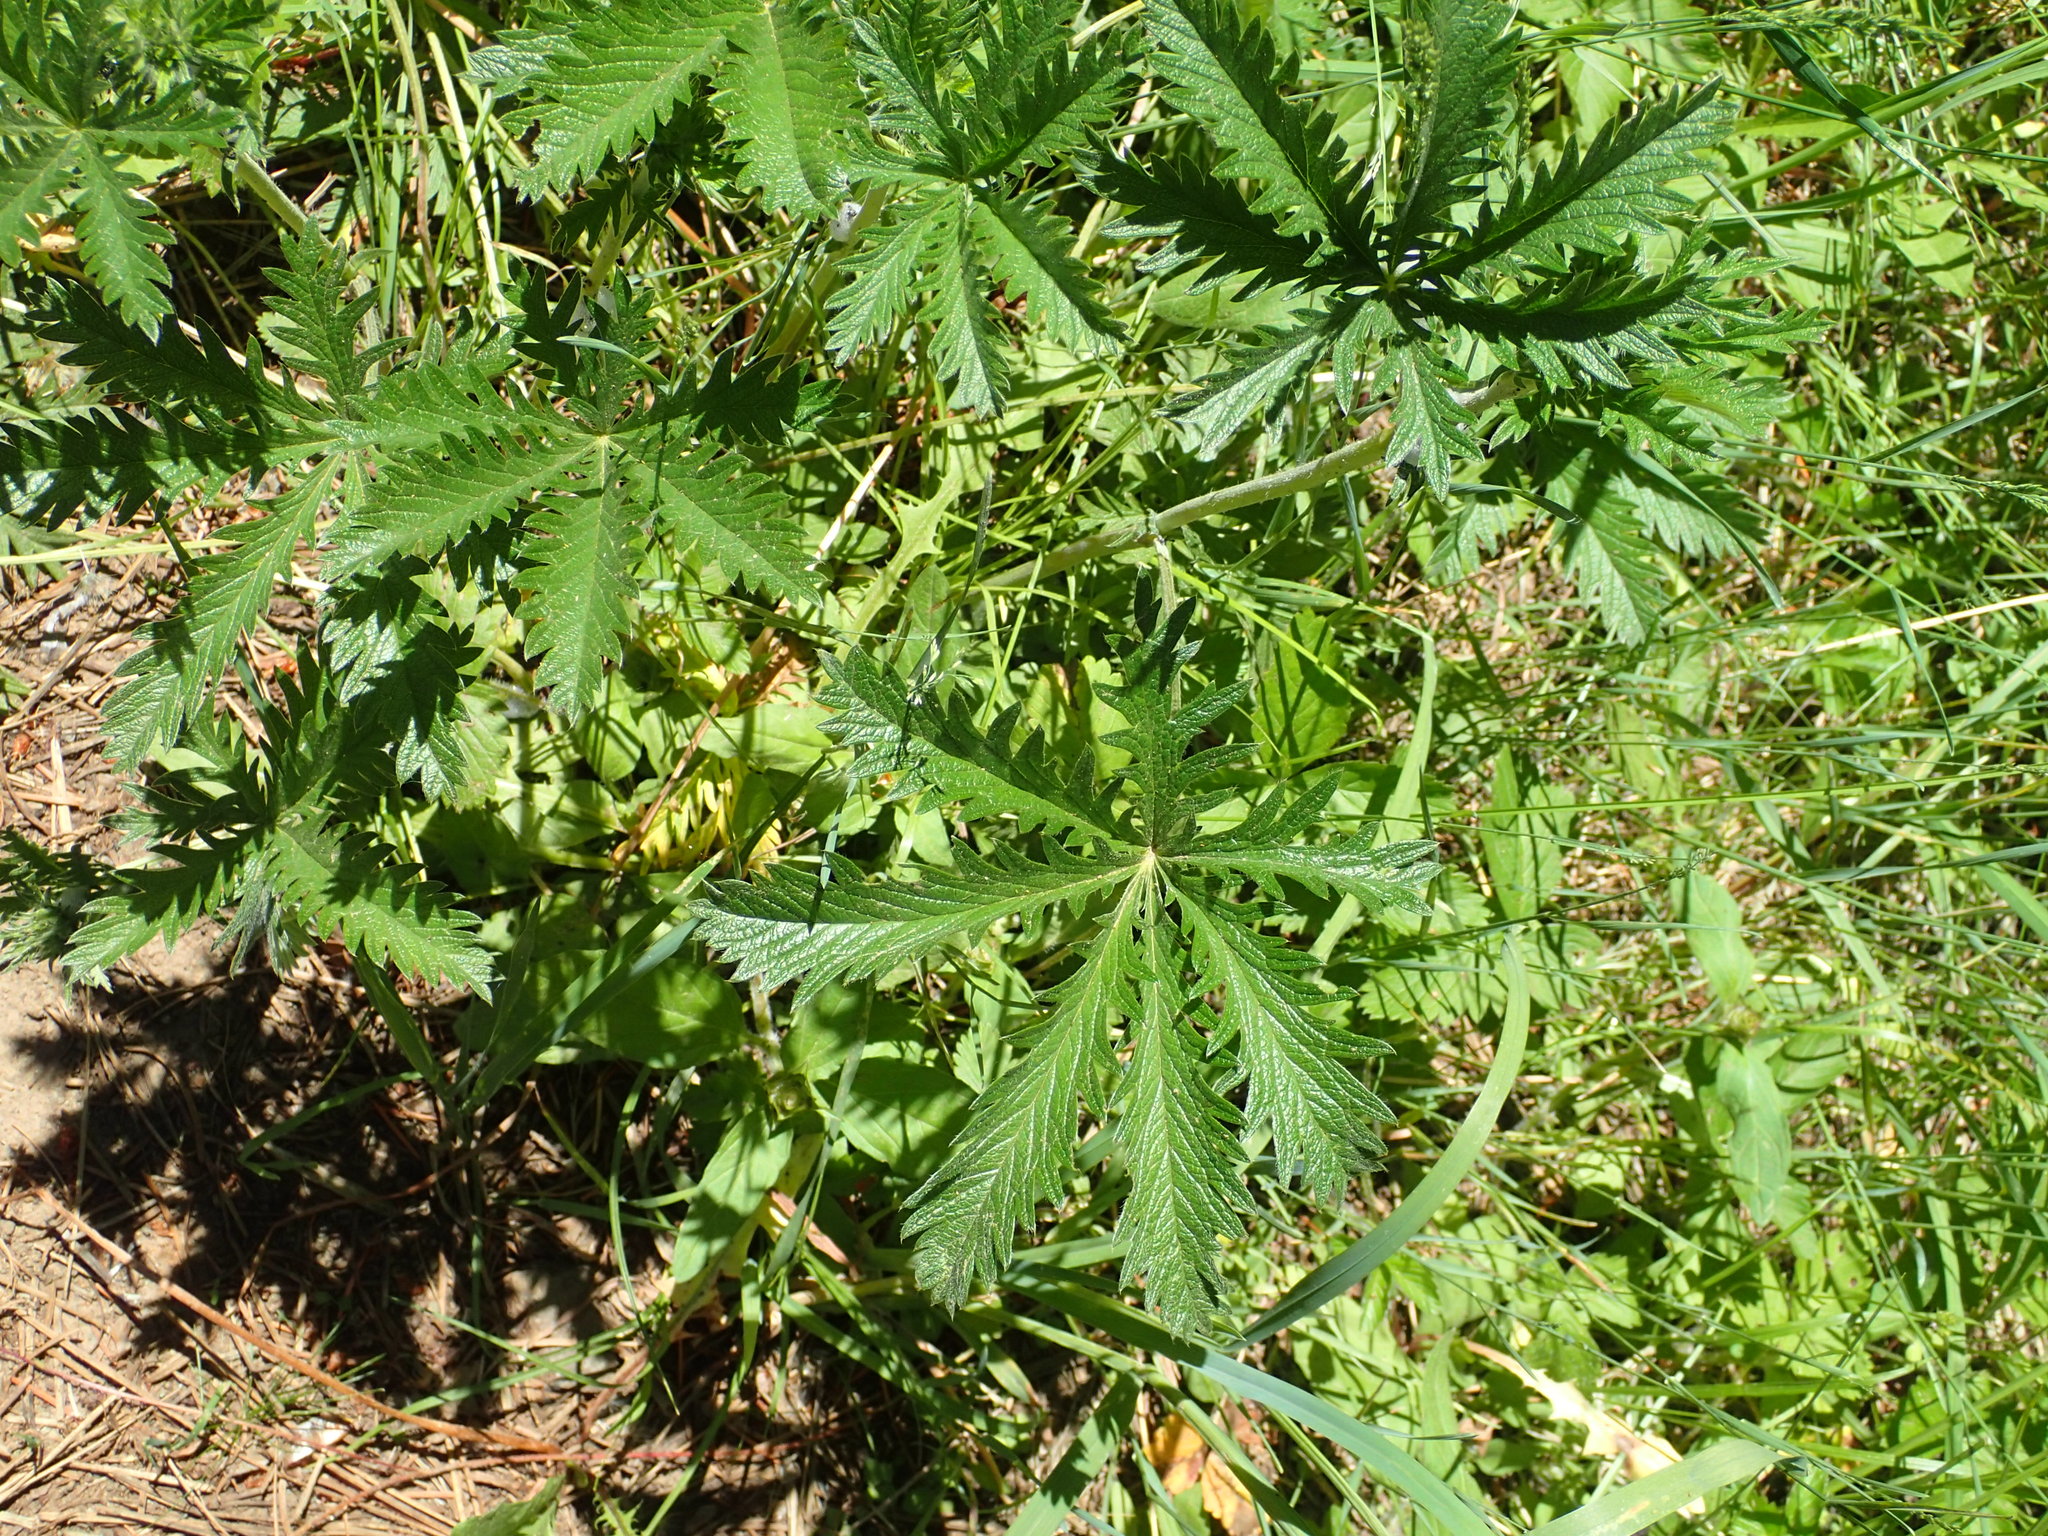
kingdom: Plantae
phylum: Tracheophyta
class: Magnoliopsida
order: Rosales
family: Rosaceae
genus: Potentilla
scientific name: Potentilla recta
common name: Sulphur cinquefoil
